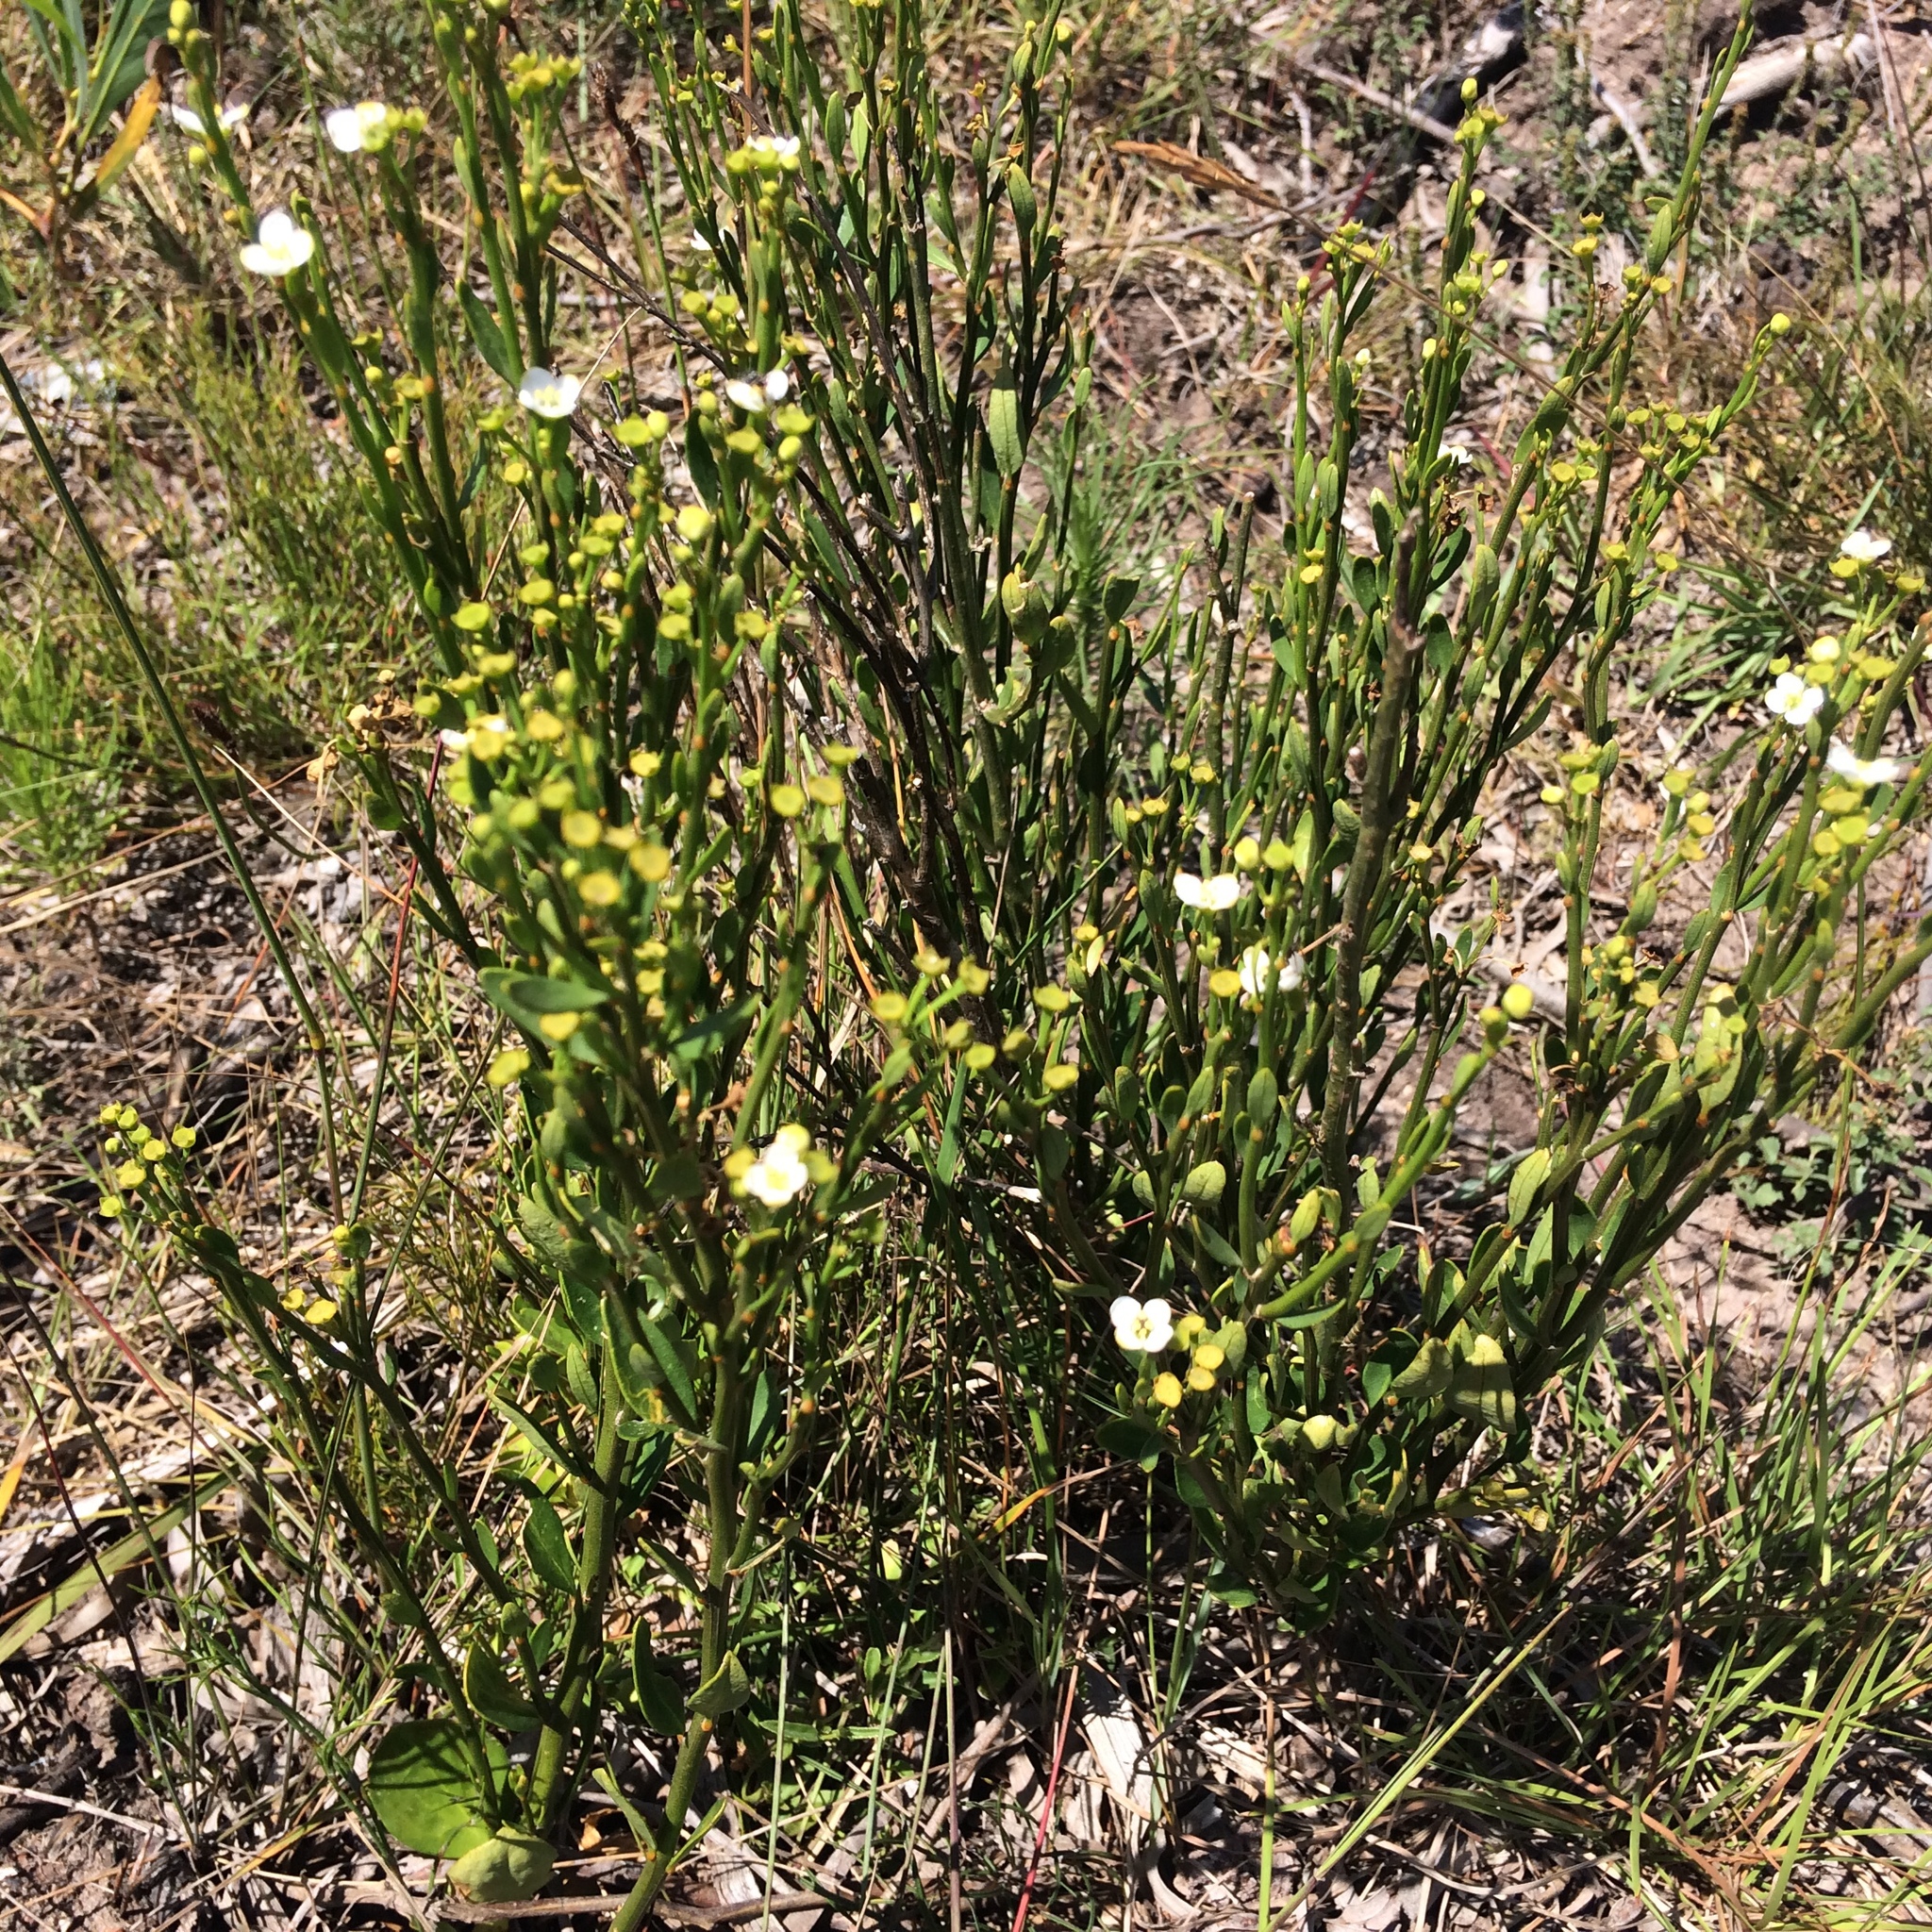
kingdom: Plantae
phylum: Tracheophyta
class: Magnoliopsida
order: Solanales
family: Montiniaceae
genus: Montinia
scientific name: Montinia caryophyllacea
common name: Wild clove-bush
